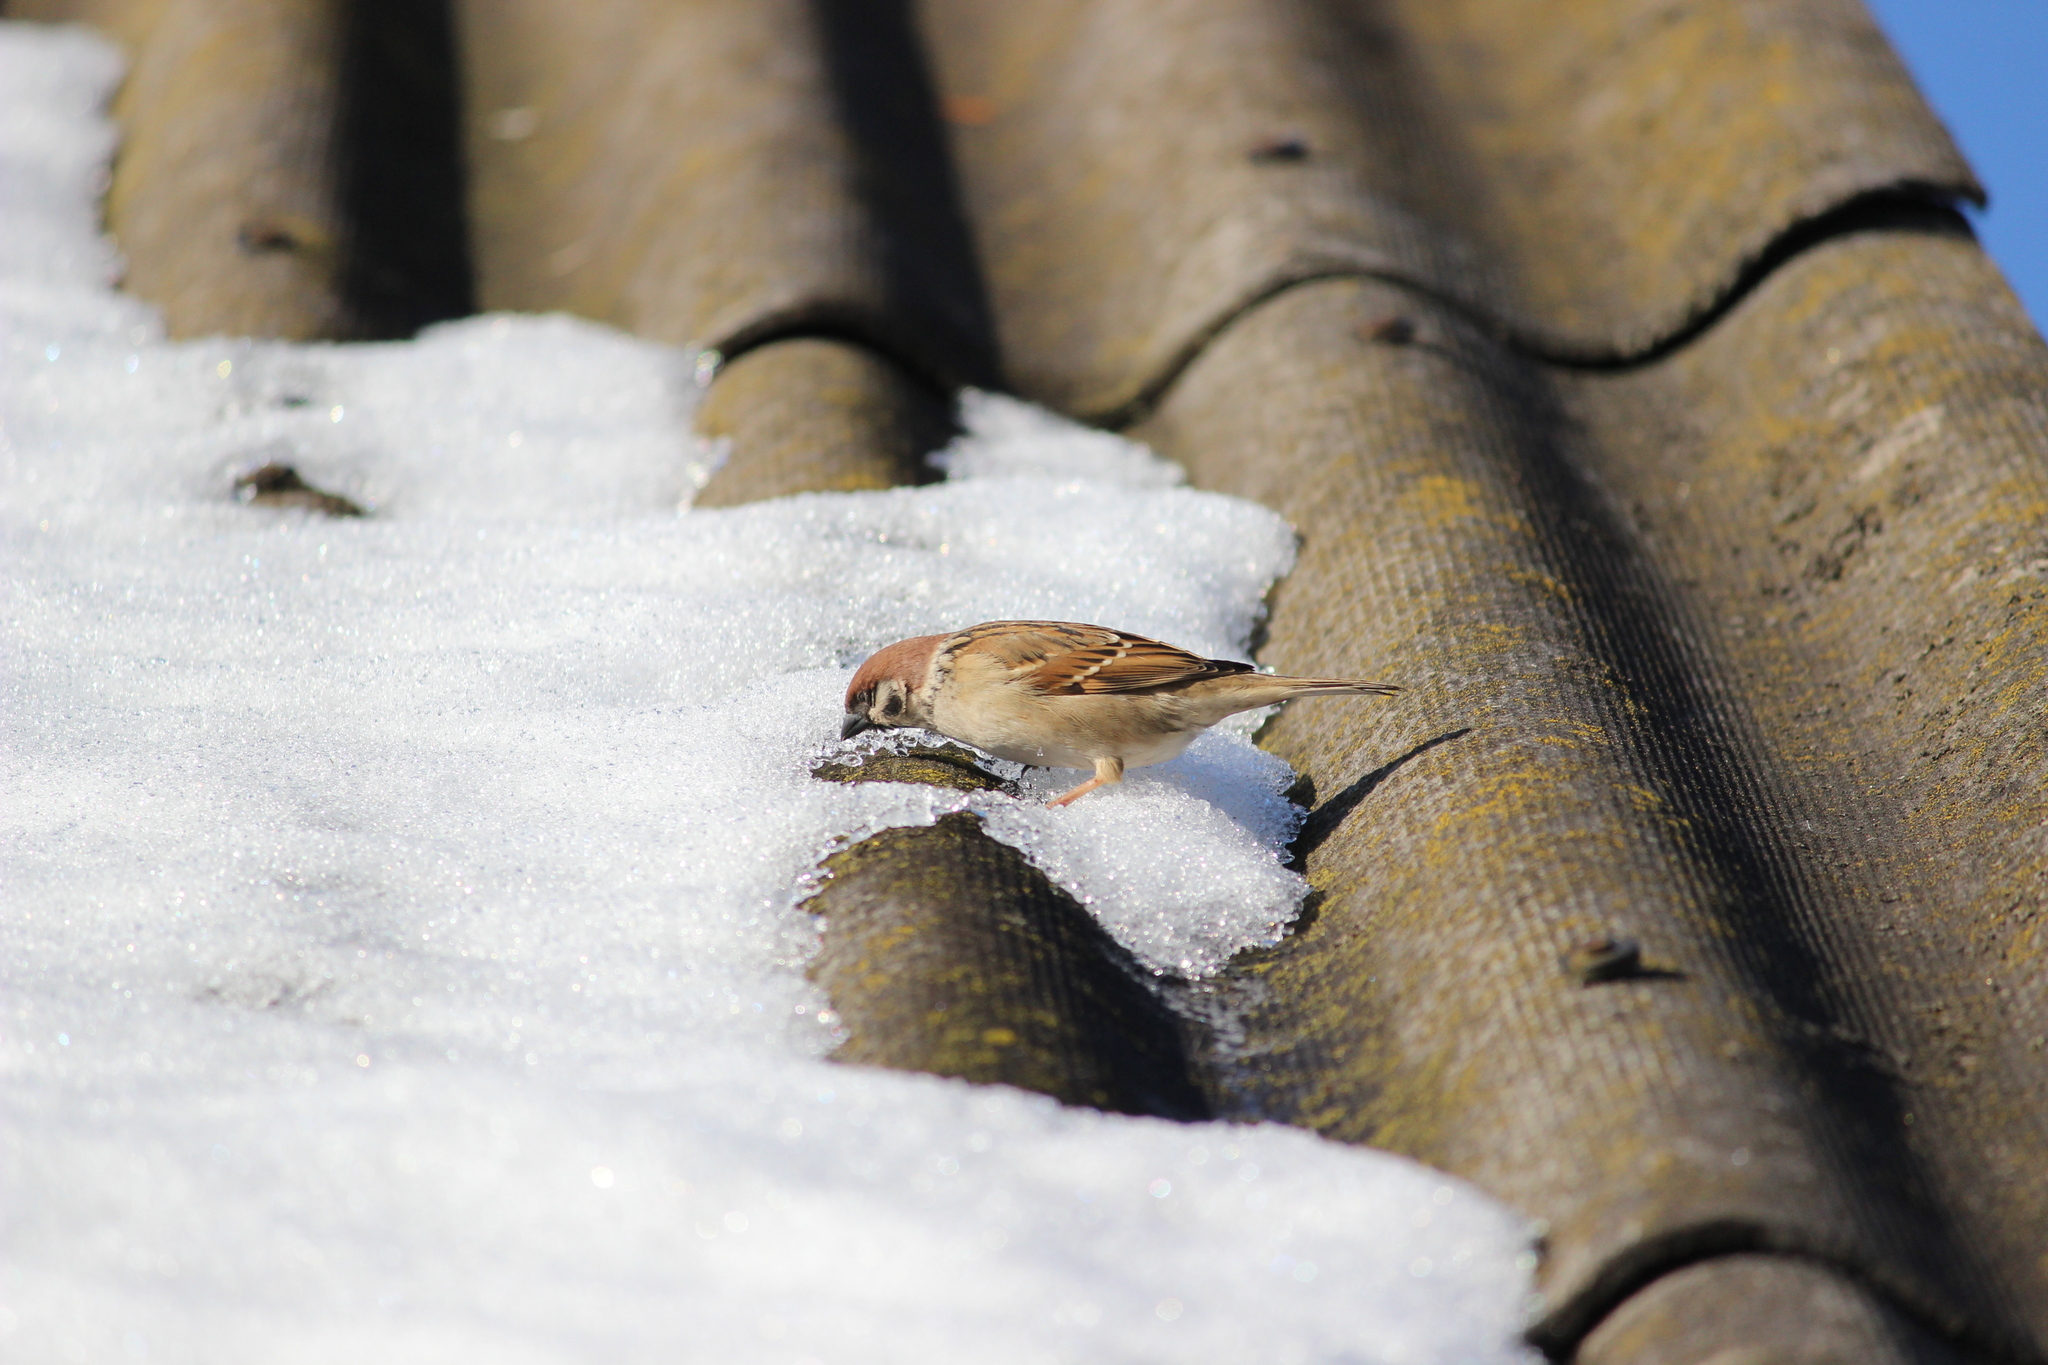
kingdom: Animalia
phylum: Chordata
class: Aves
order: Passeriformes
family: Passeridae
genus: Passer
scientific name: Passer montanus
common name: Eurasian tree sparrow
